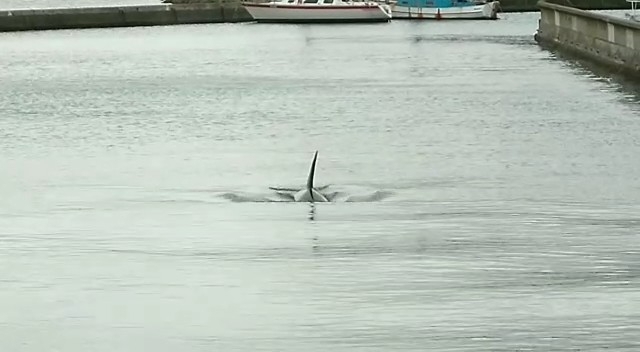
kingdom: Animalia
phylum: Chordata
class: Mammalia
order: Cetacea
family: Delphinidae
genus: Orcinus
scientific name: Orcinus orca
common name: Killer whale
